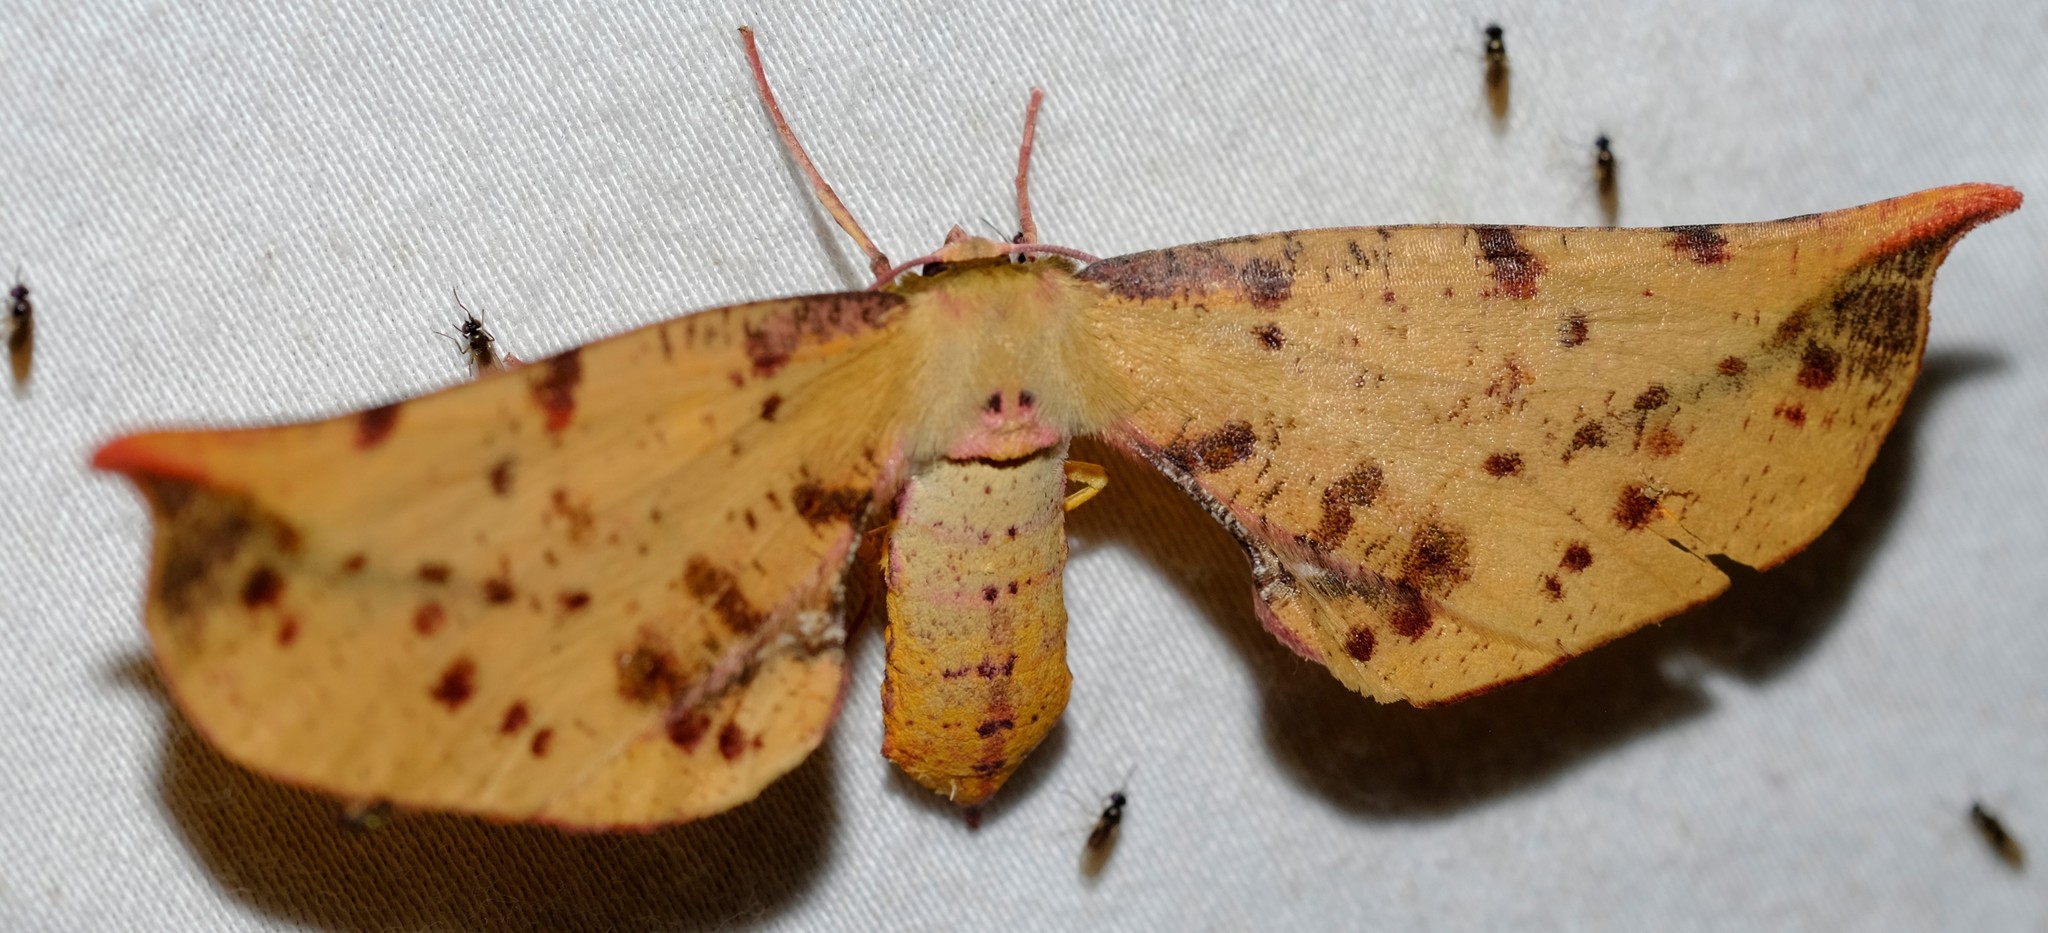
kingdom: Animalia
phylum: Arthropoda
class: Insecta
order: Lepidoptera
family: Geometridae
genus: Parepisparis
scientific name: Parepisparis lutosaria
